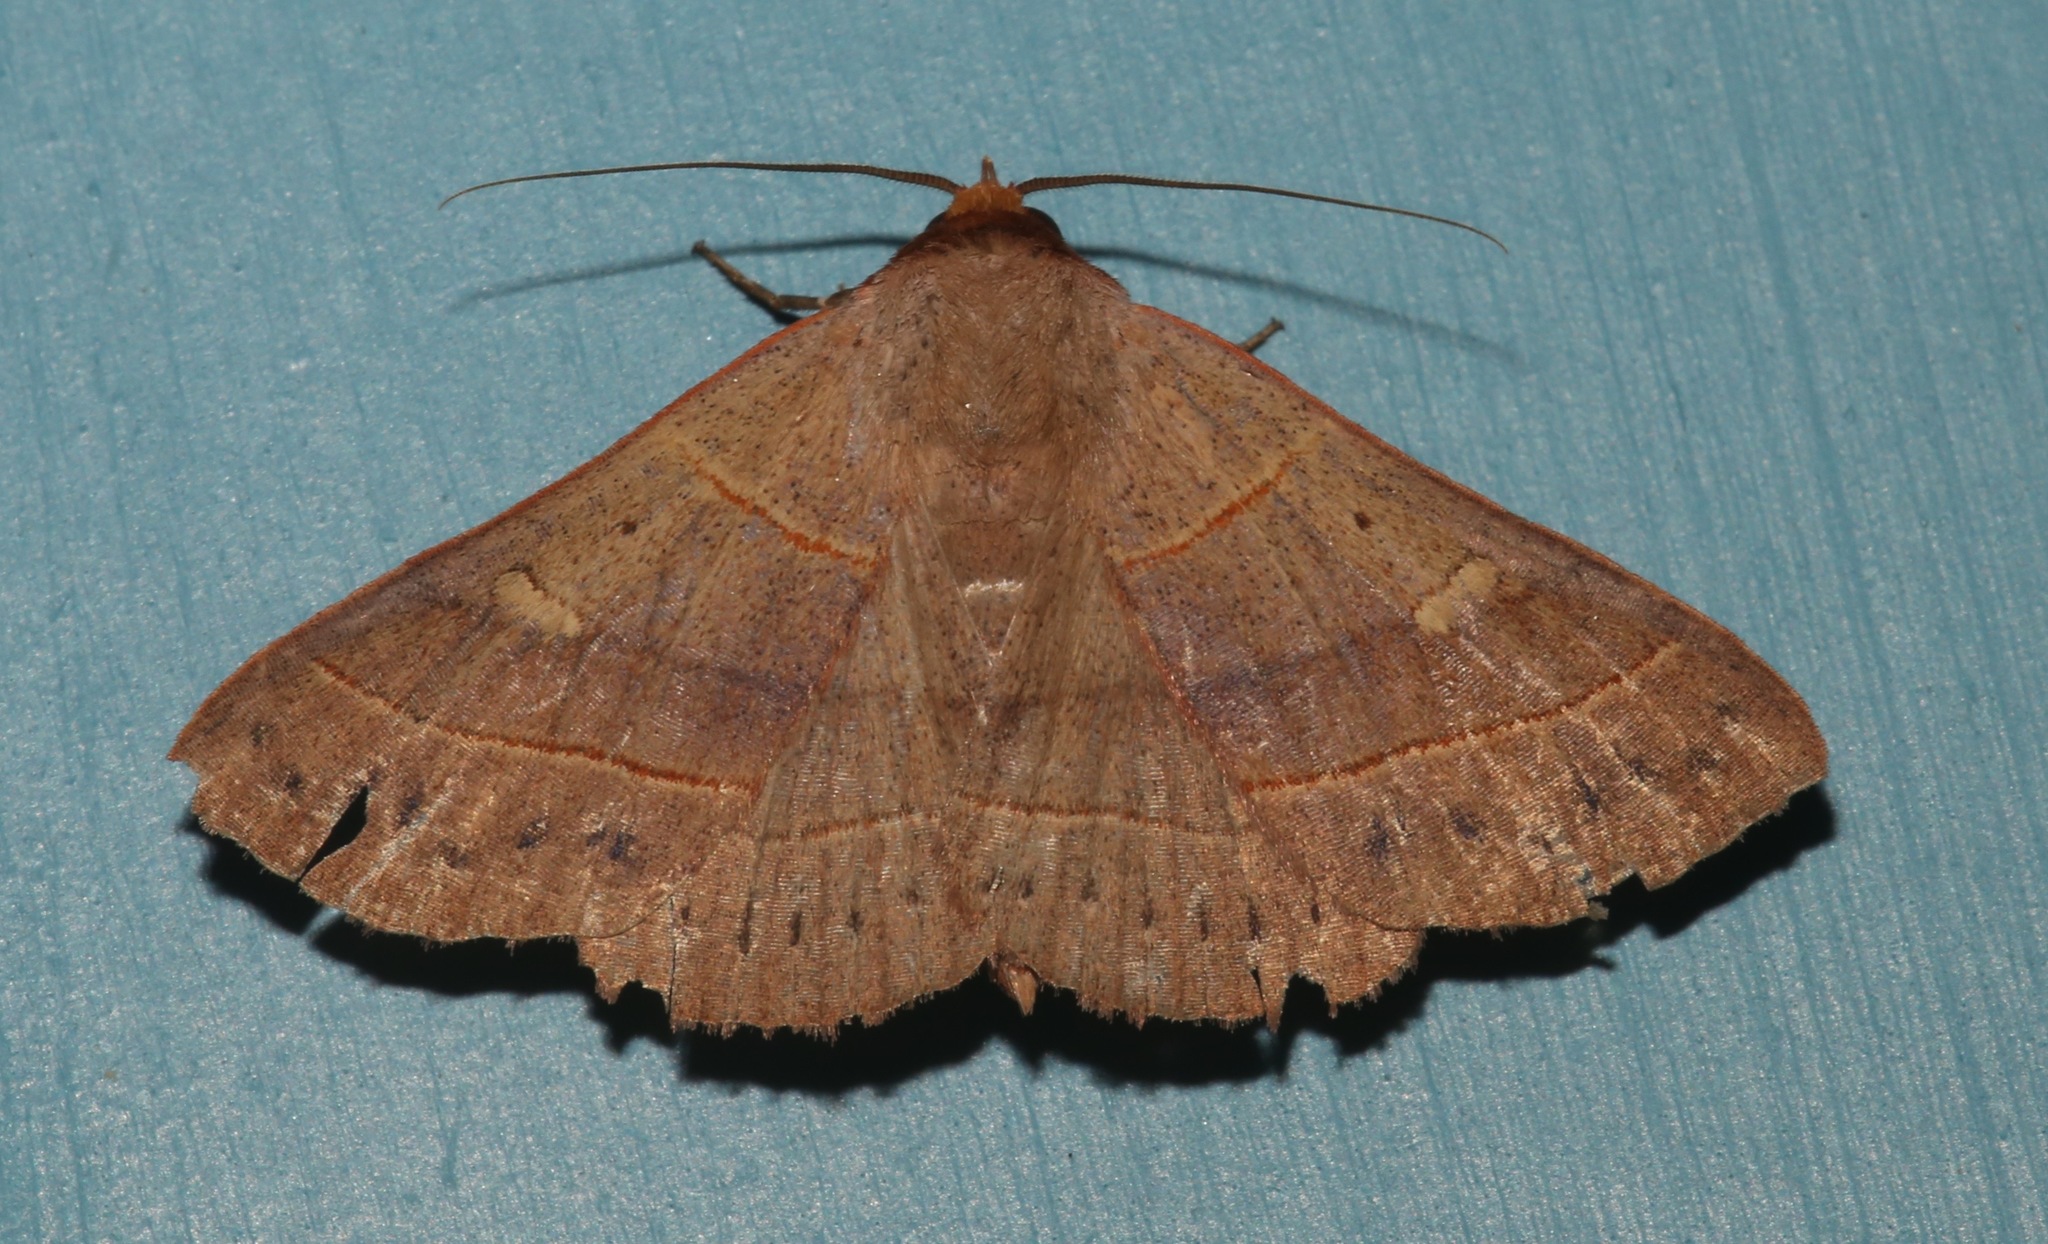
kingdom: Animalia
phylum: Arthropoda
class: Insecta
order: Lepidoptera
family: Erebidae
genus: Panopoda
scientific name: Panopoda rufimargo
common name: Red-lined panopoda moth
